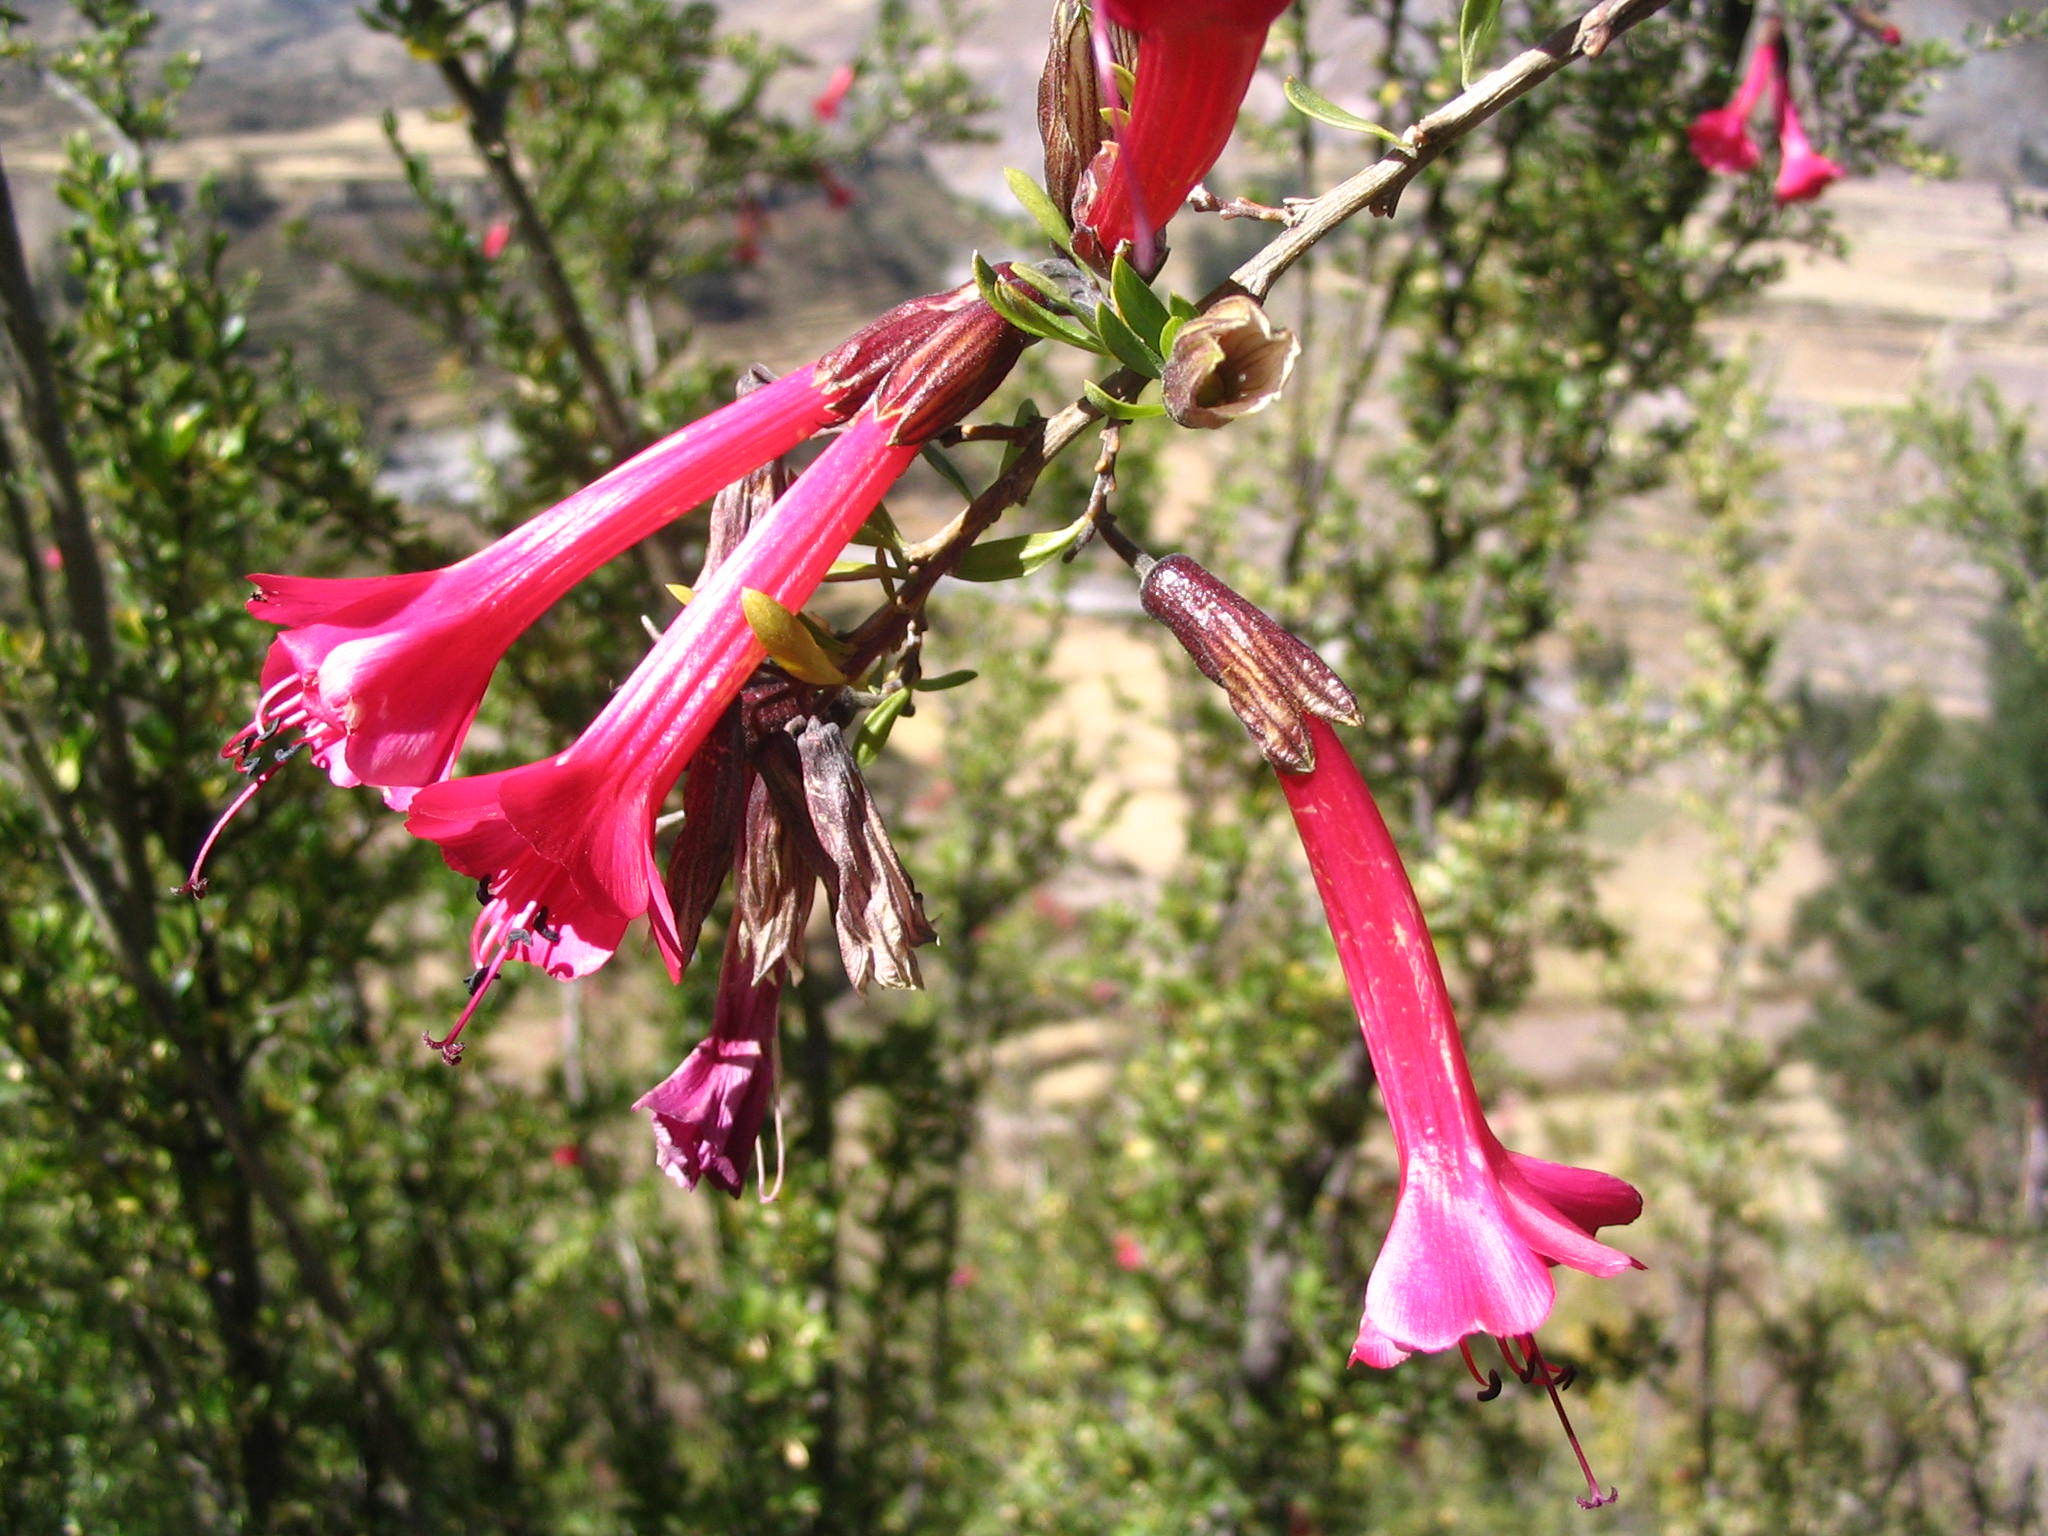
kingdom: Plantae
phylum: Tracheophyta
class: Magnoliopsida
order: Ericales
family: Polemoniaceae
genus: Cantua
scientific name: Cantua buxifolia
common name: Sacred-flower-of-the-incas
